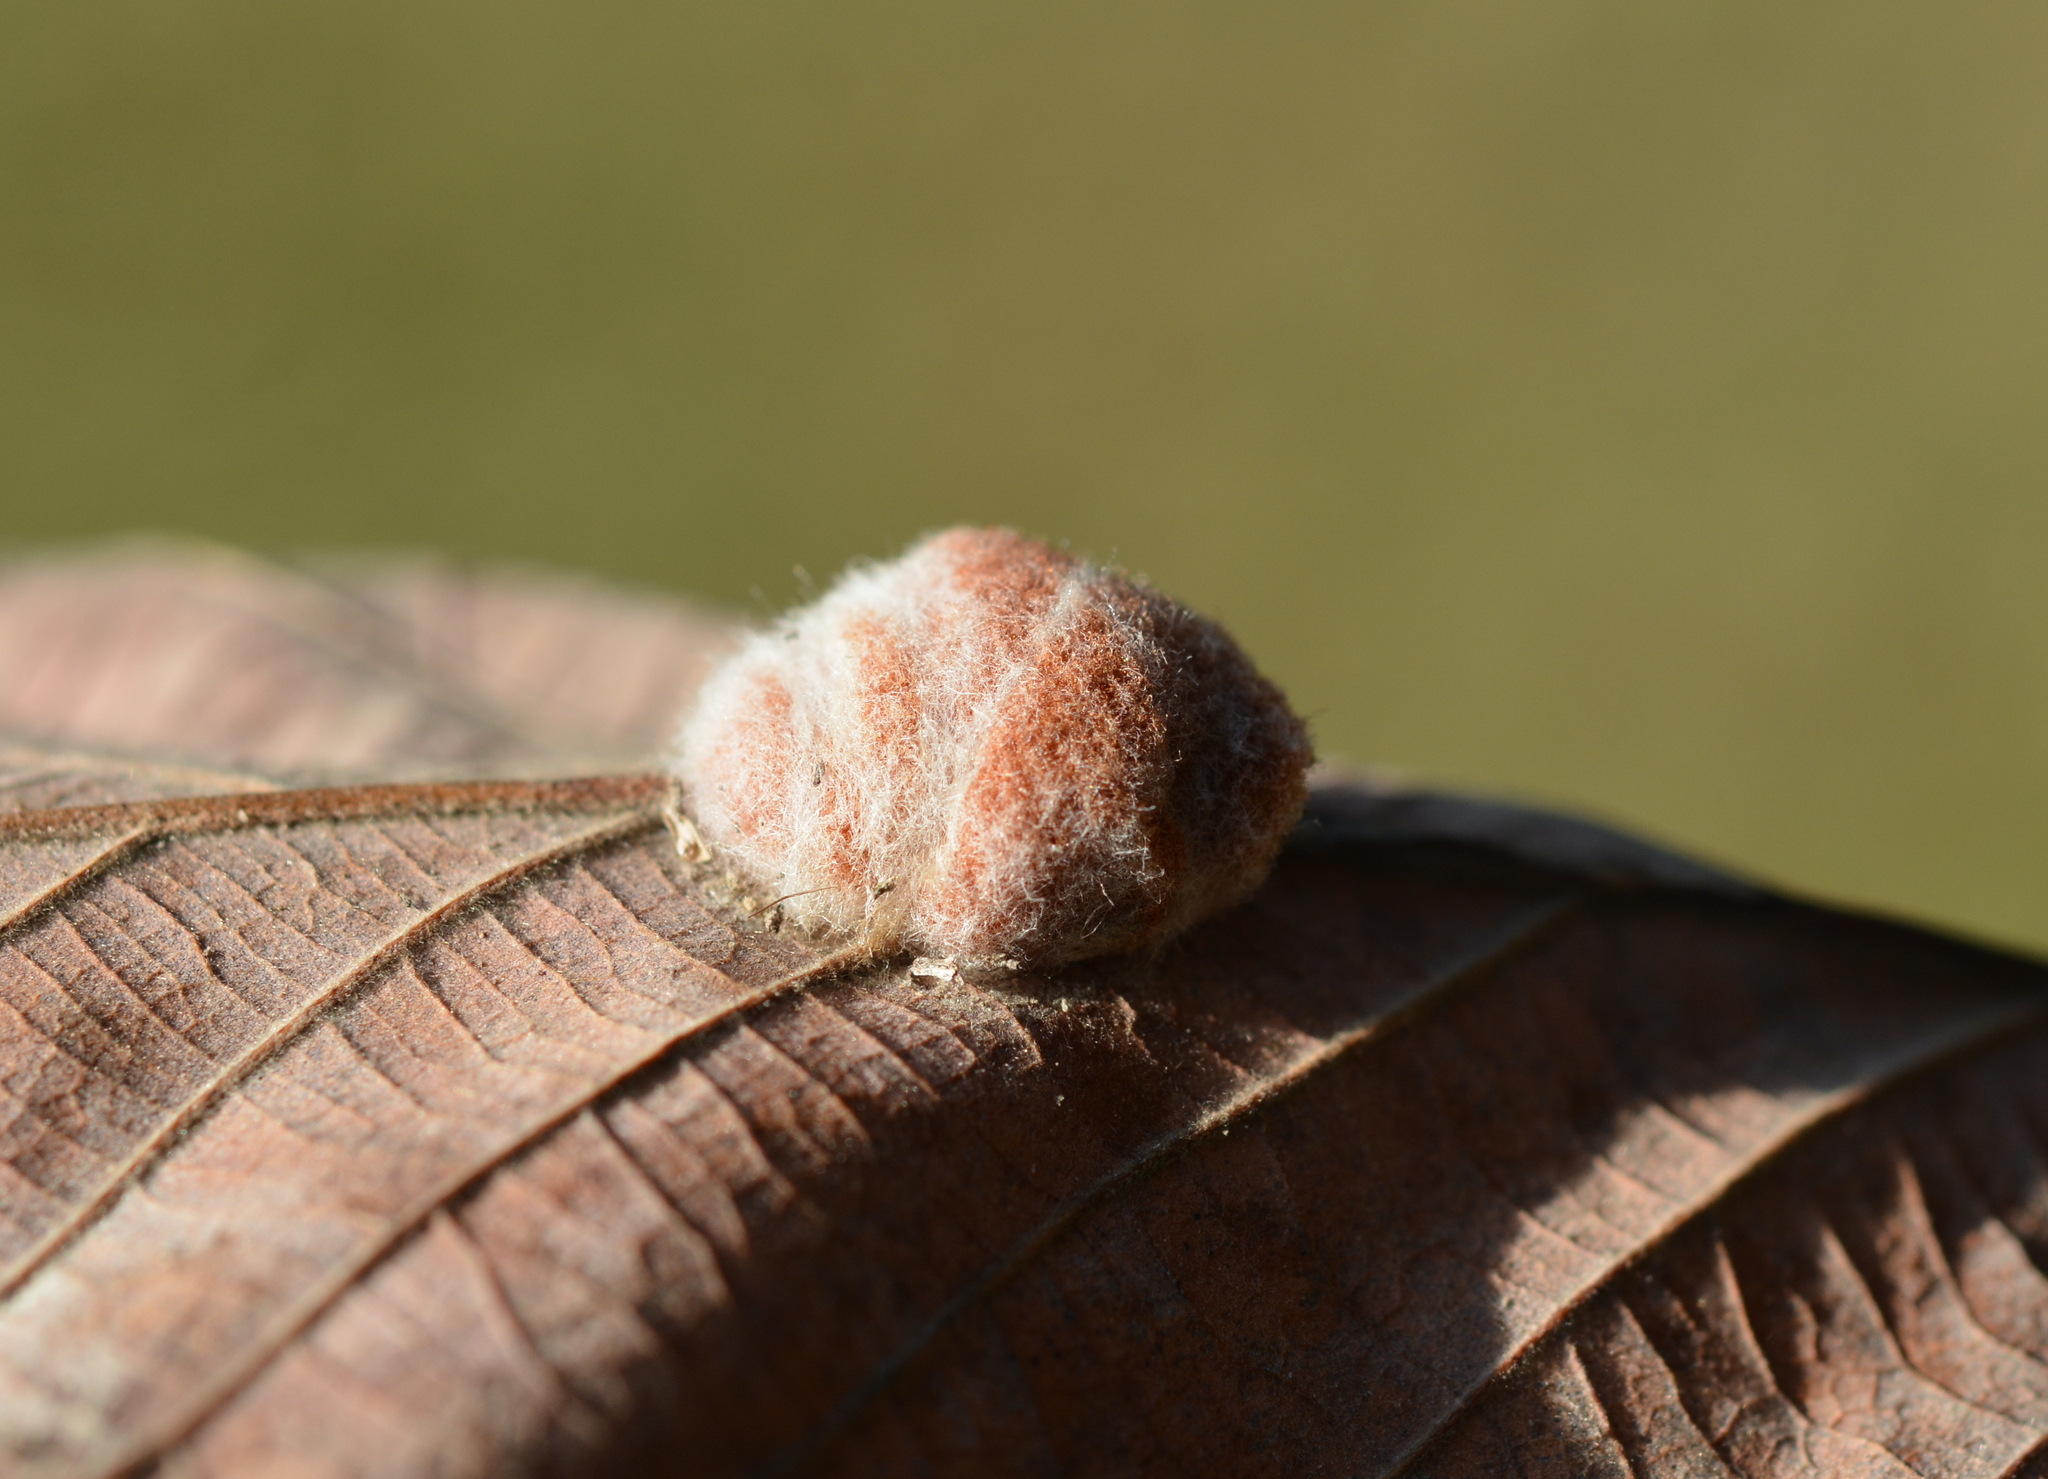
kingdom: Animalia
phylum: Arthropoda
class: Insecta
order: Hymenoptera
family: Cynipidae
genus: Andricus
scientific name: Andricus quercusflocci
